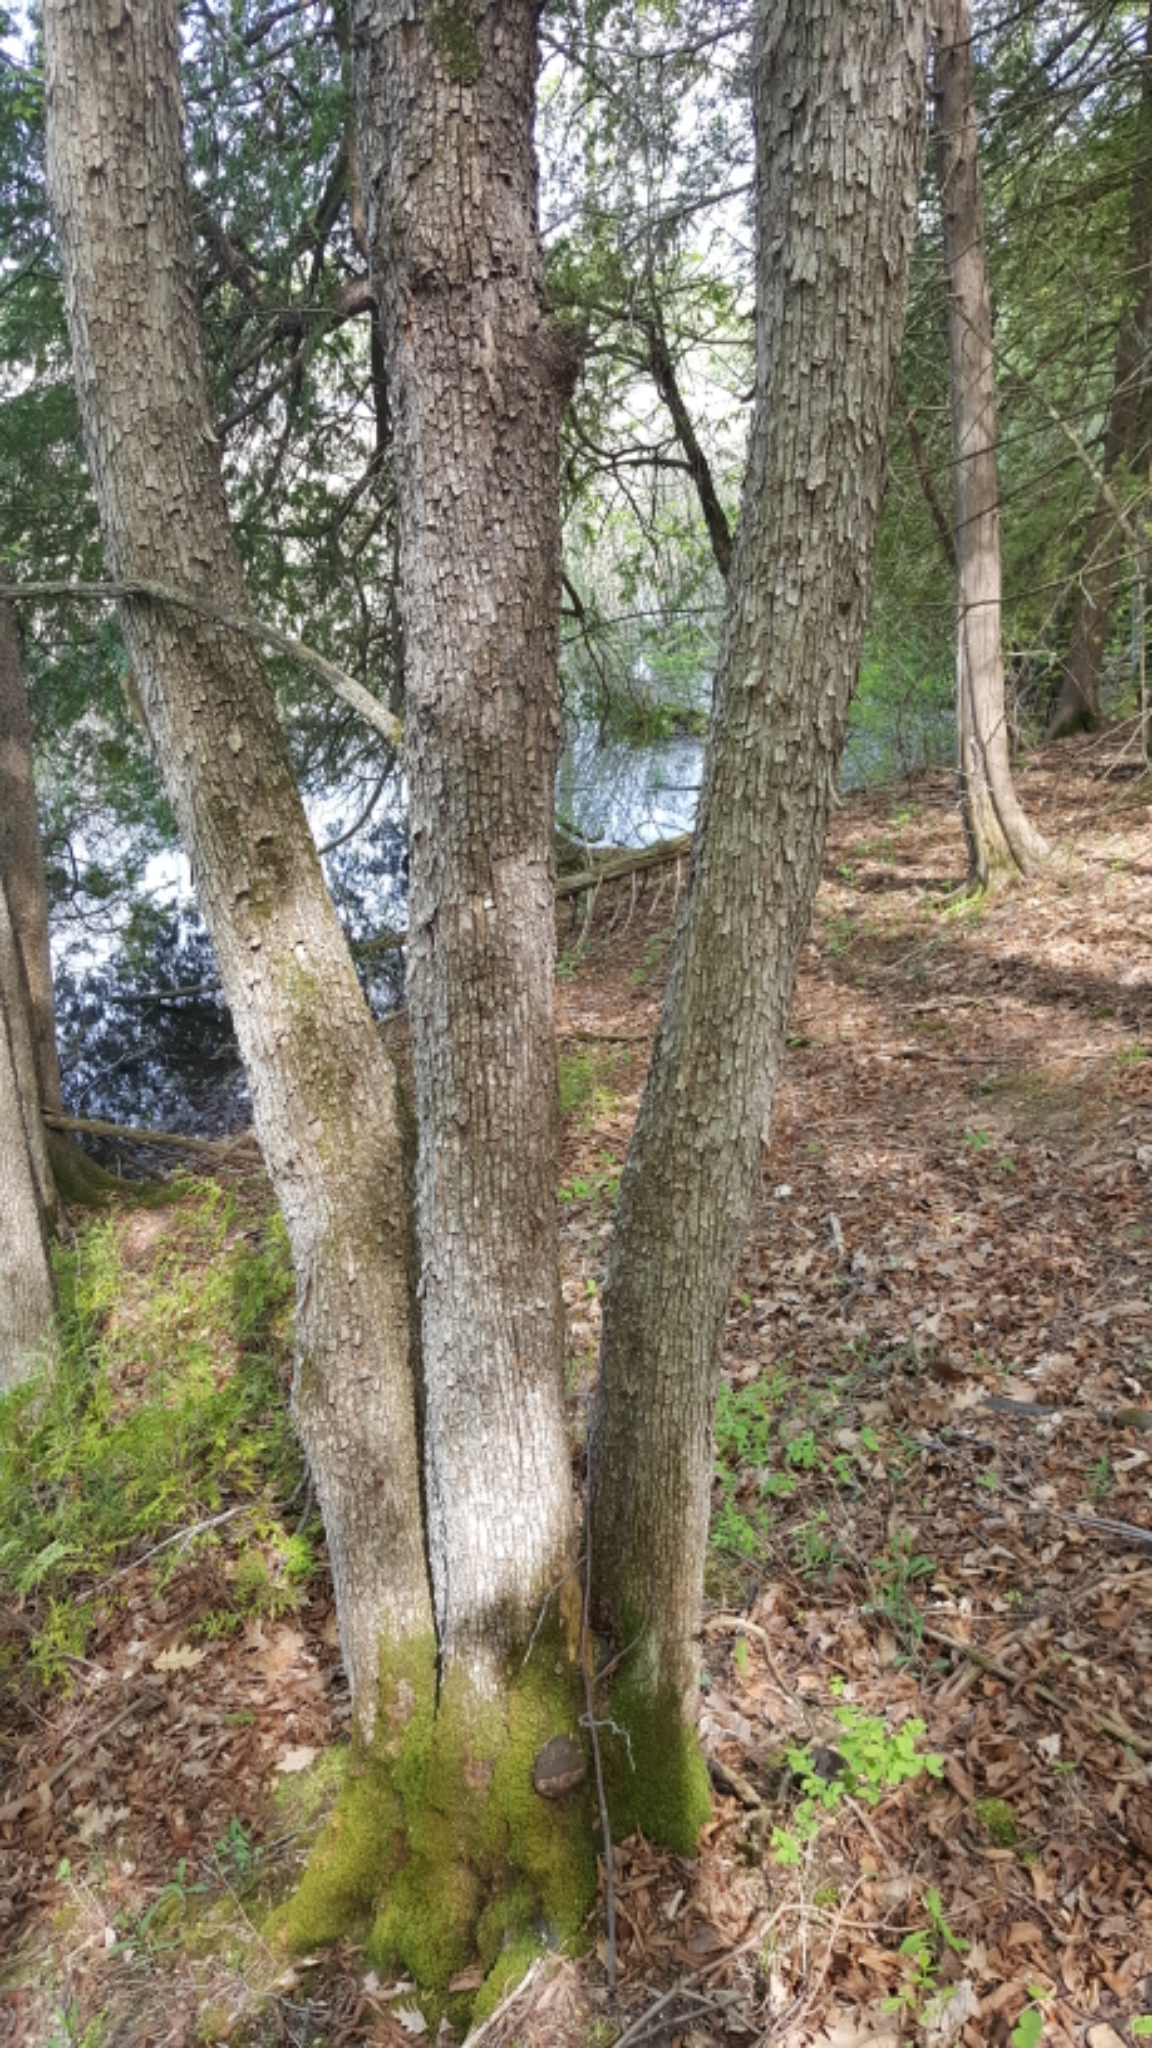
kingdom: Plantae
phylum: Tracheophyta
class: Magnoliopsida
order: Fagales
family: Betulaceae
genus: Ostrya
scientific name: Ostrya virginiana
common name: Ironwood
